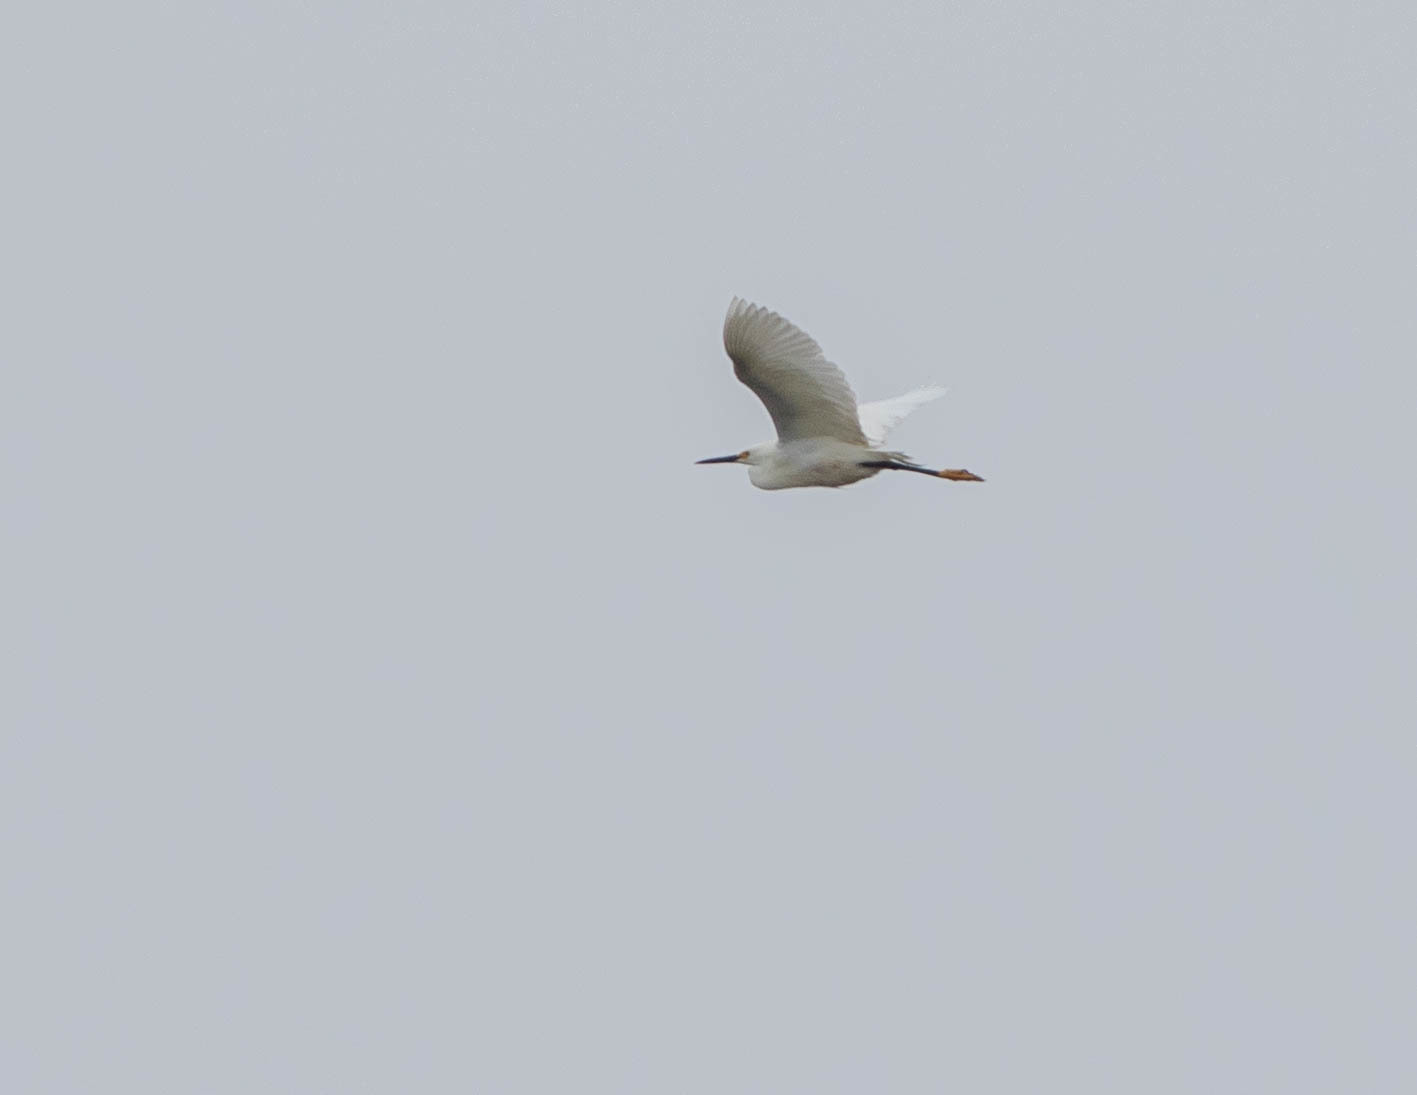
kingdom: Animalia
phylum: Chordata
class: Aves
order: Pelecaniformes
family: Ardeidae
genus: Egretta
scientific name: Egretta thula
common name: Snowy egret
